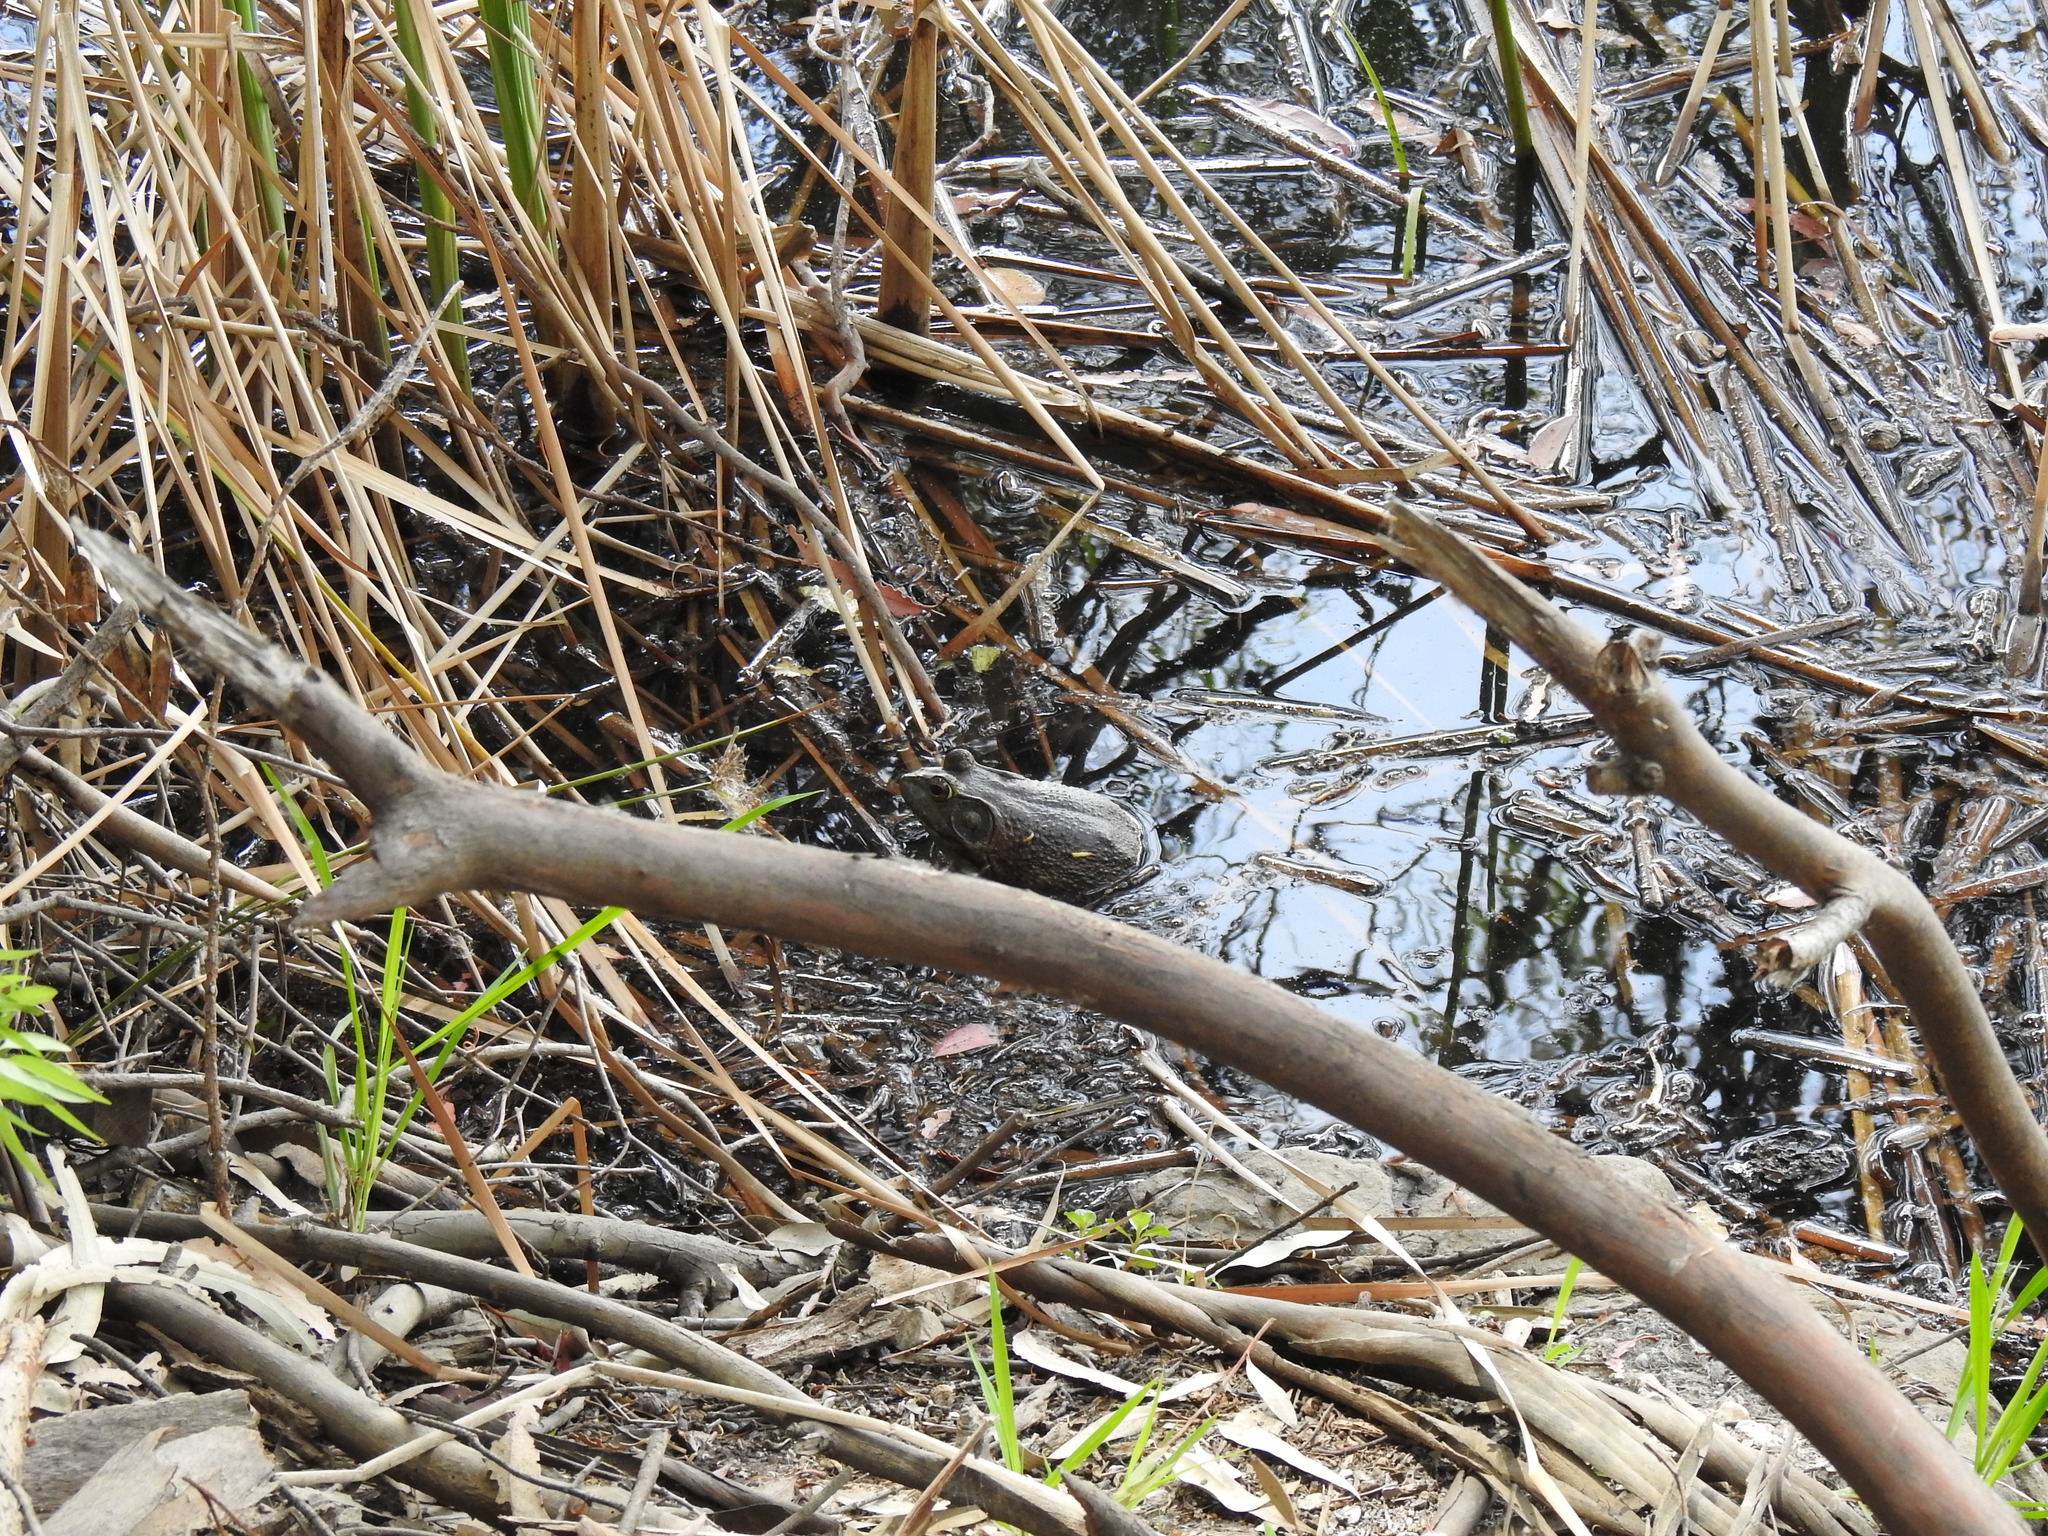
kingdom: Animalia
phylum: Chordata
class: Amphibia
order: Anura
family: Ranidae
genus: Lithobates
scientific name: Lithobates catesbeianus
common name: American bullfrog
